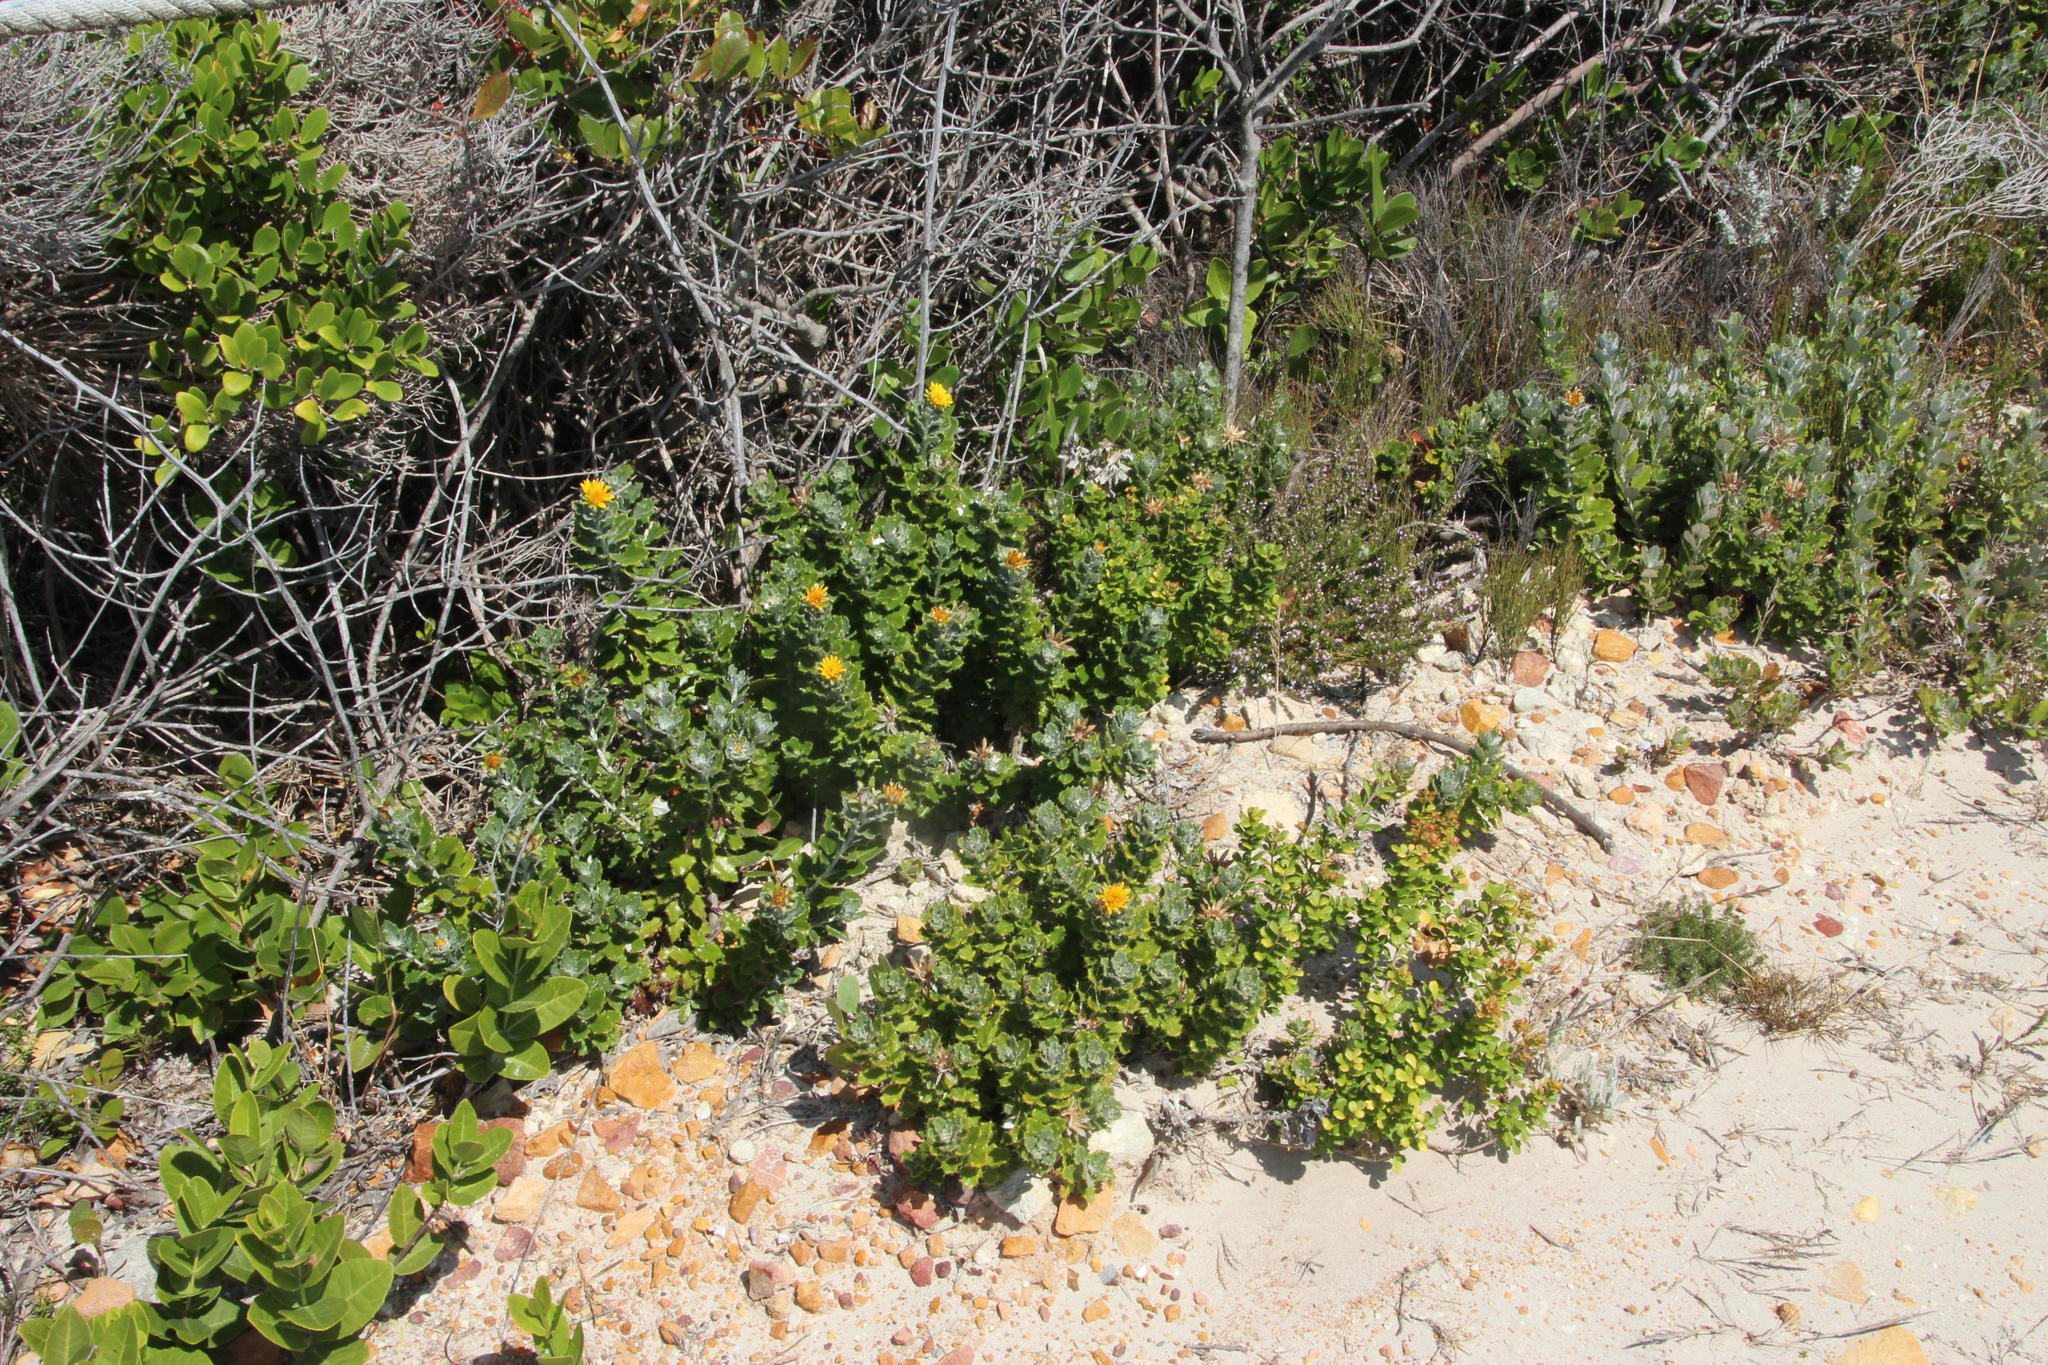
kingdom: Plantae
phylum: Tracheophyta
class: Magnoliopsida
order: Asterales
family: Asteraceae
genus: Berkheya
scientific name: Berkheya coriacea
